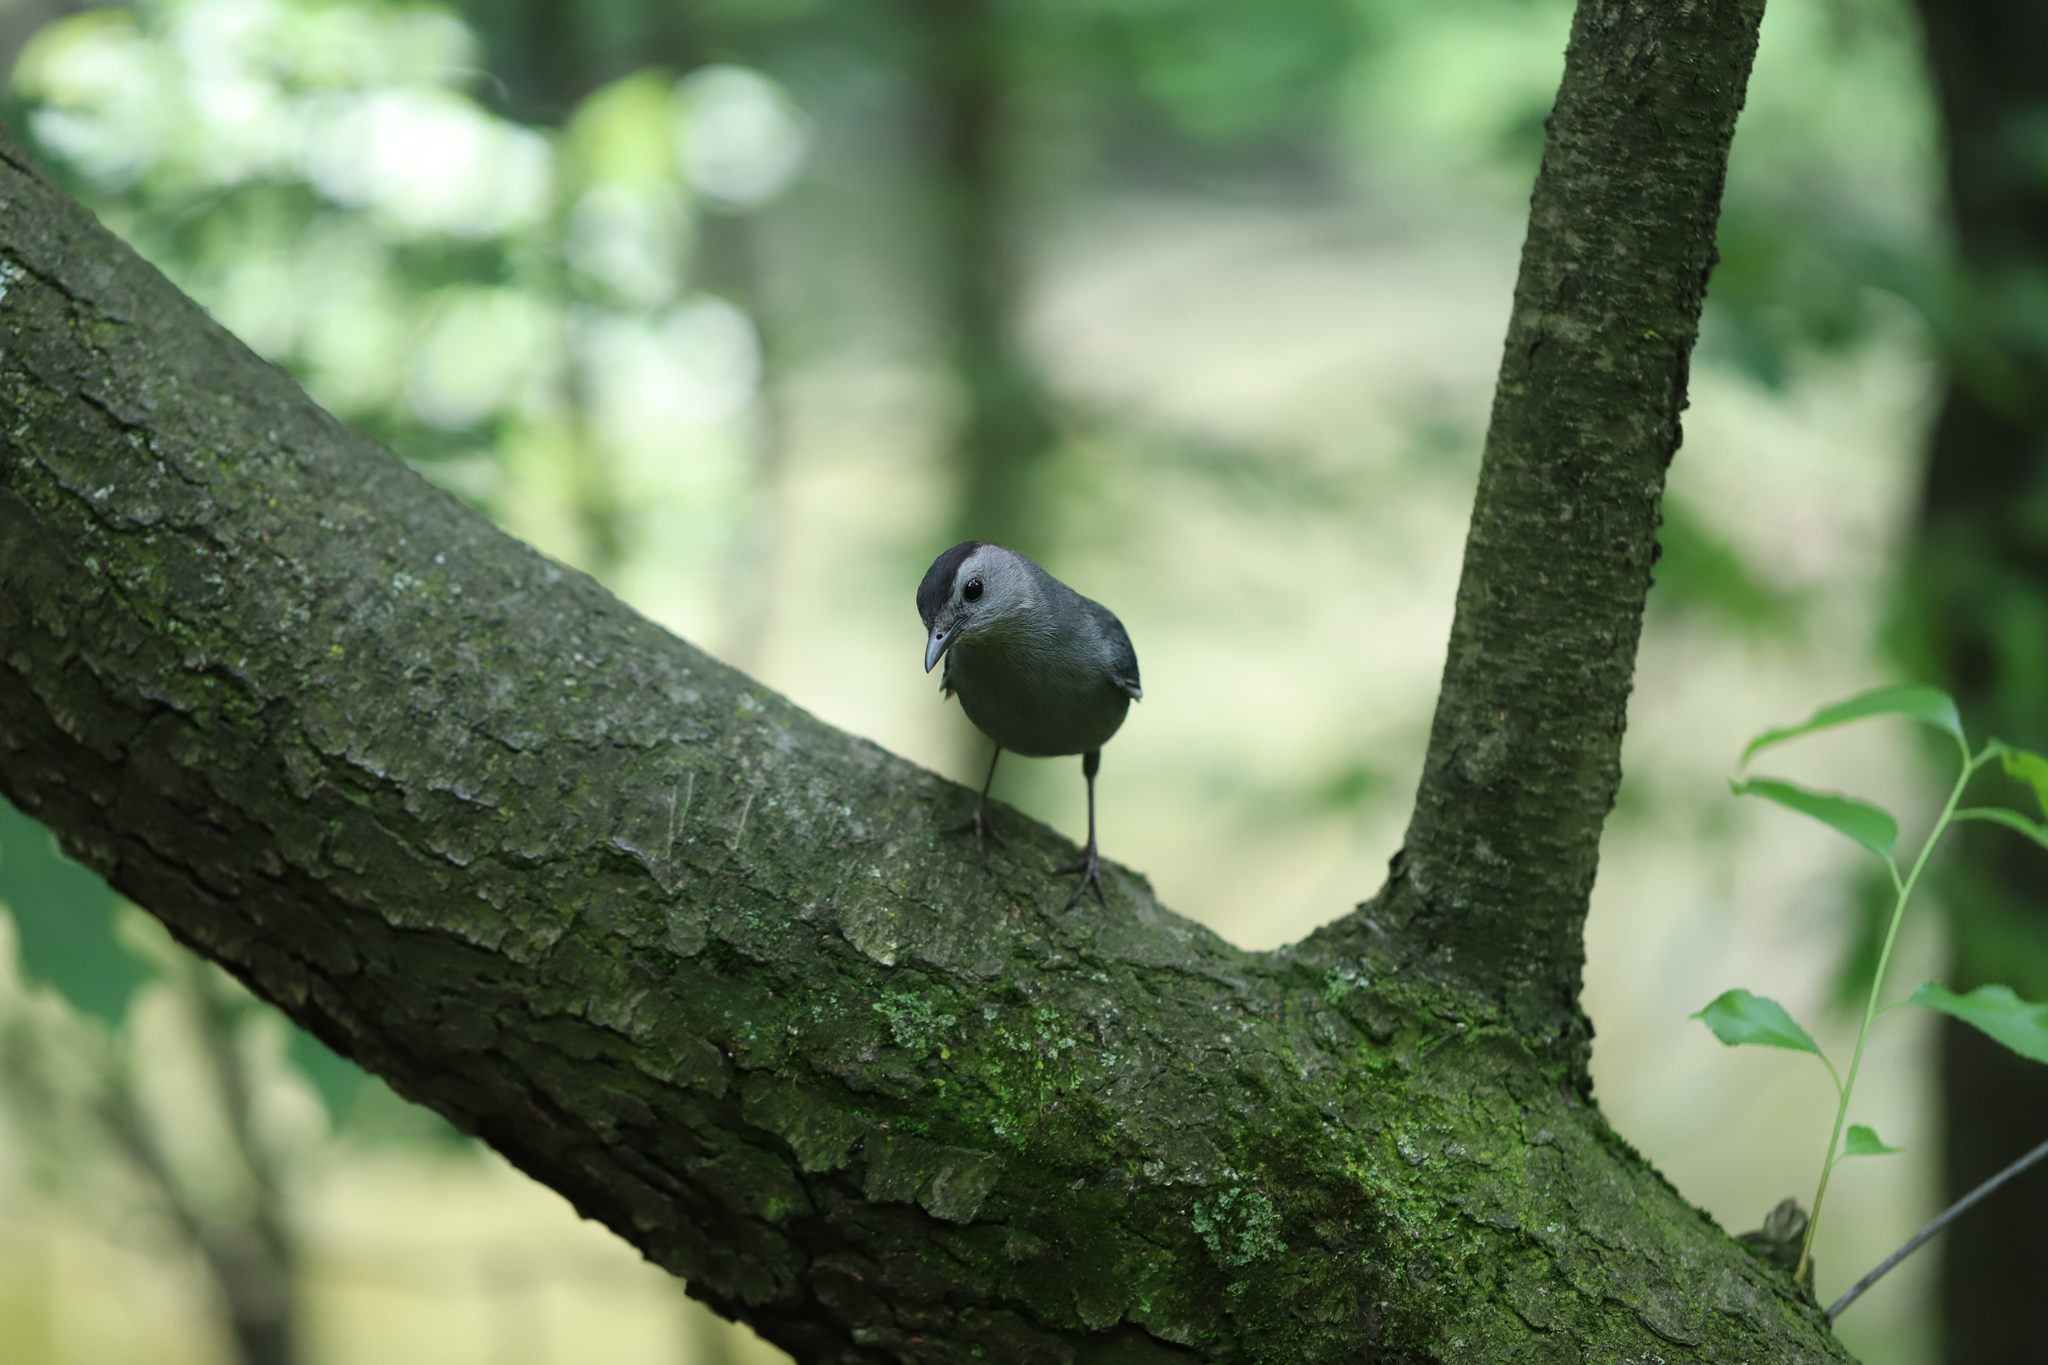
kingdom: Animalia
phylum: Chordata
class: Aves
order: Passeriformes
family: Mimidae
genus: Dumetella
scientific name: Dumetella carolinensis
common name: Gray catbird
